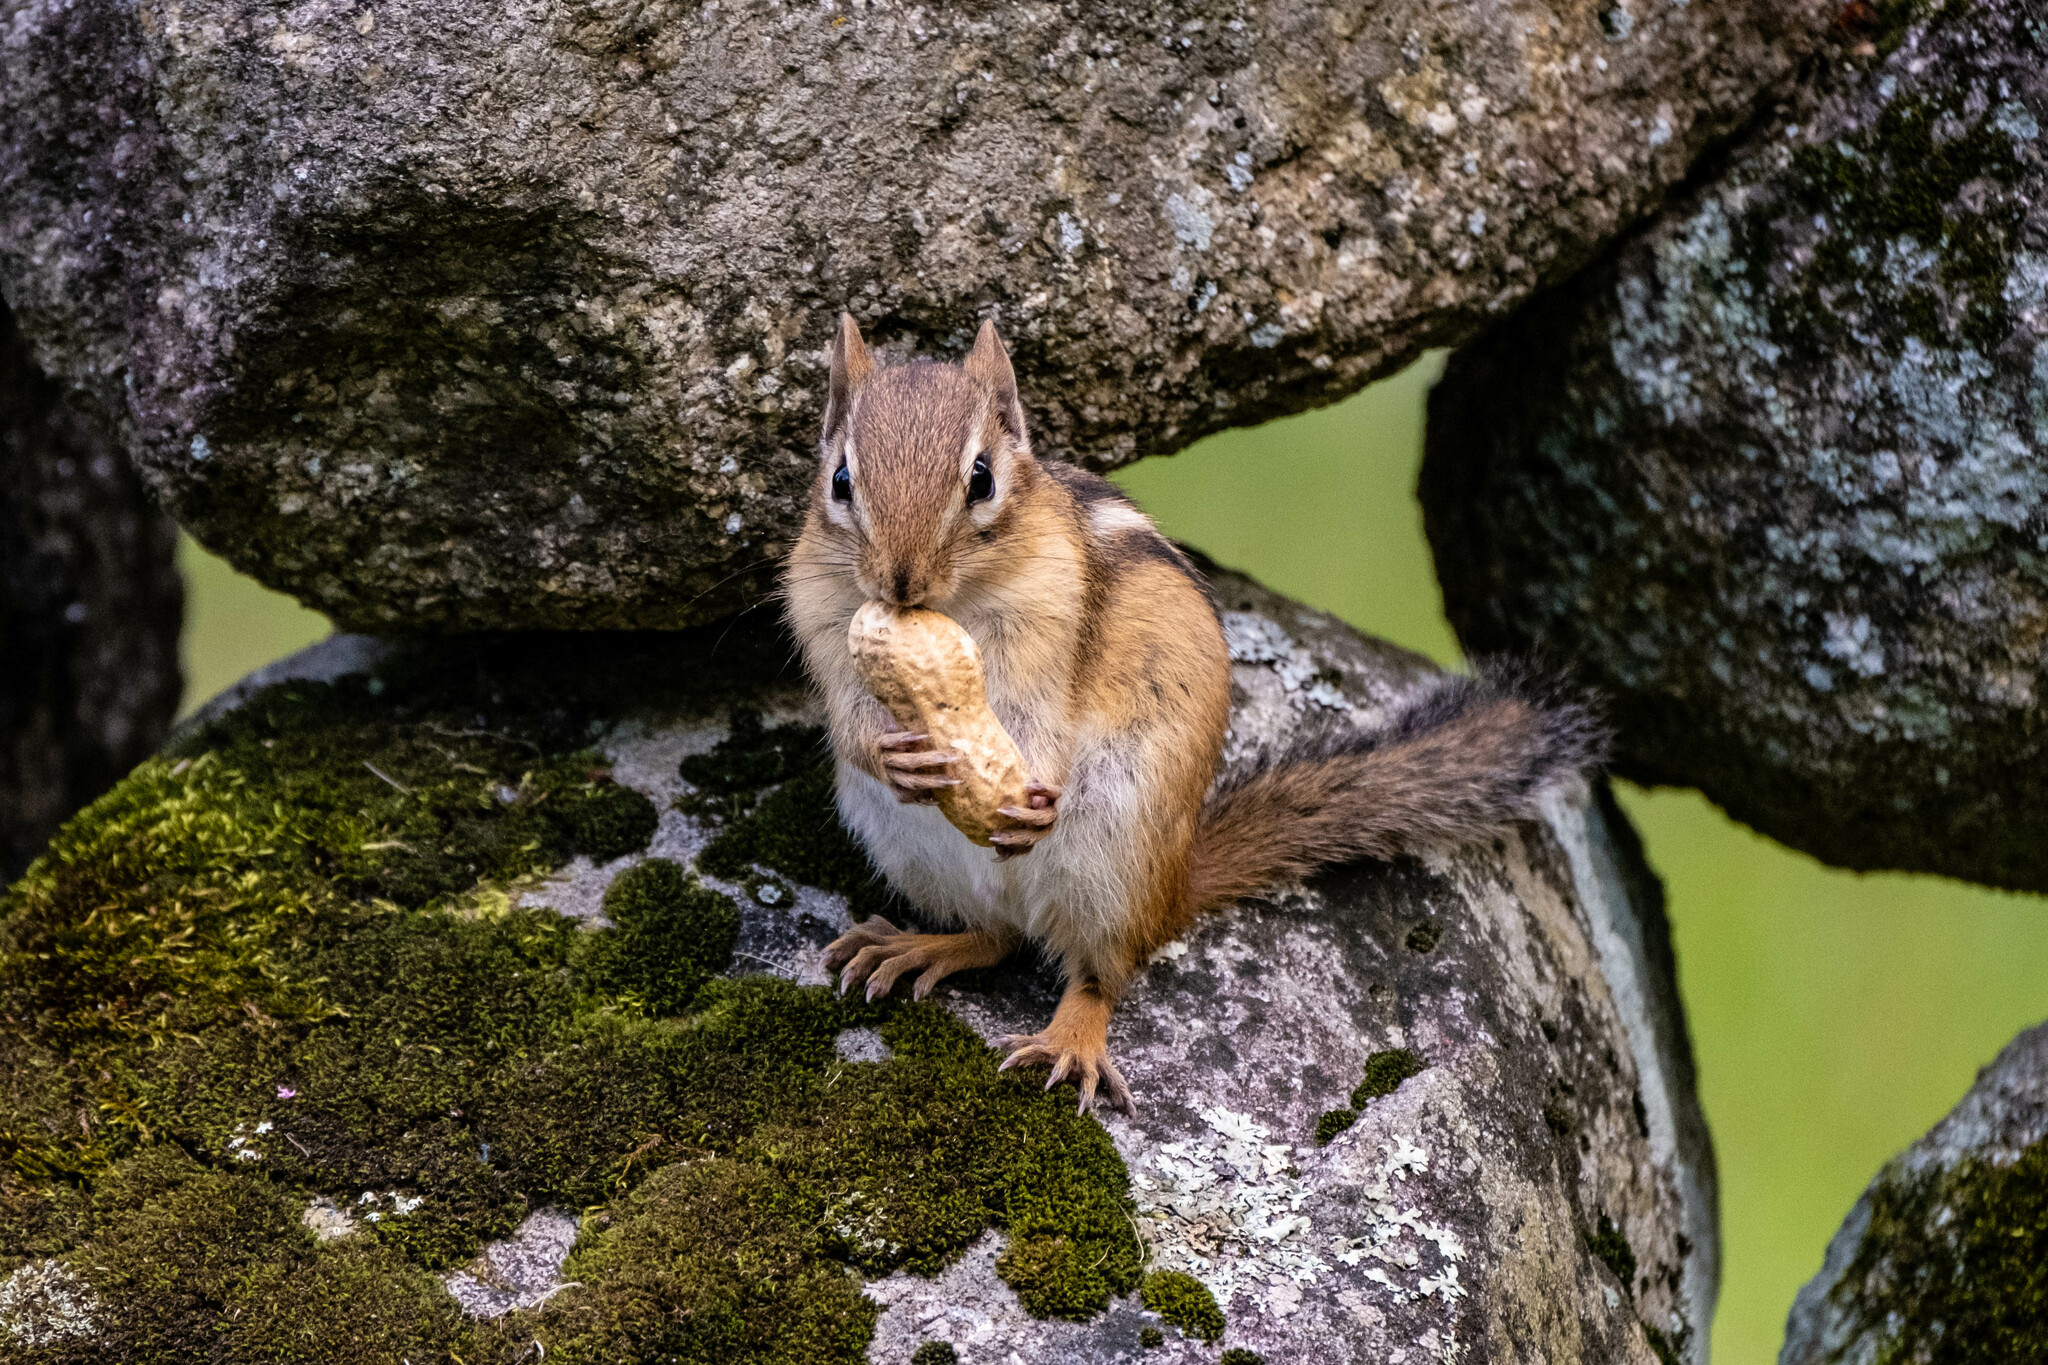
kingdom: Animalia
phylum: Chordata
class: Mammalia
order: Rodentia
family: Sciuridae
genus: Tamias
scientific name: Tamias striatus
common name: Eastern chipmunk
